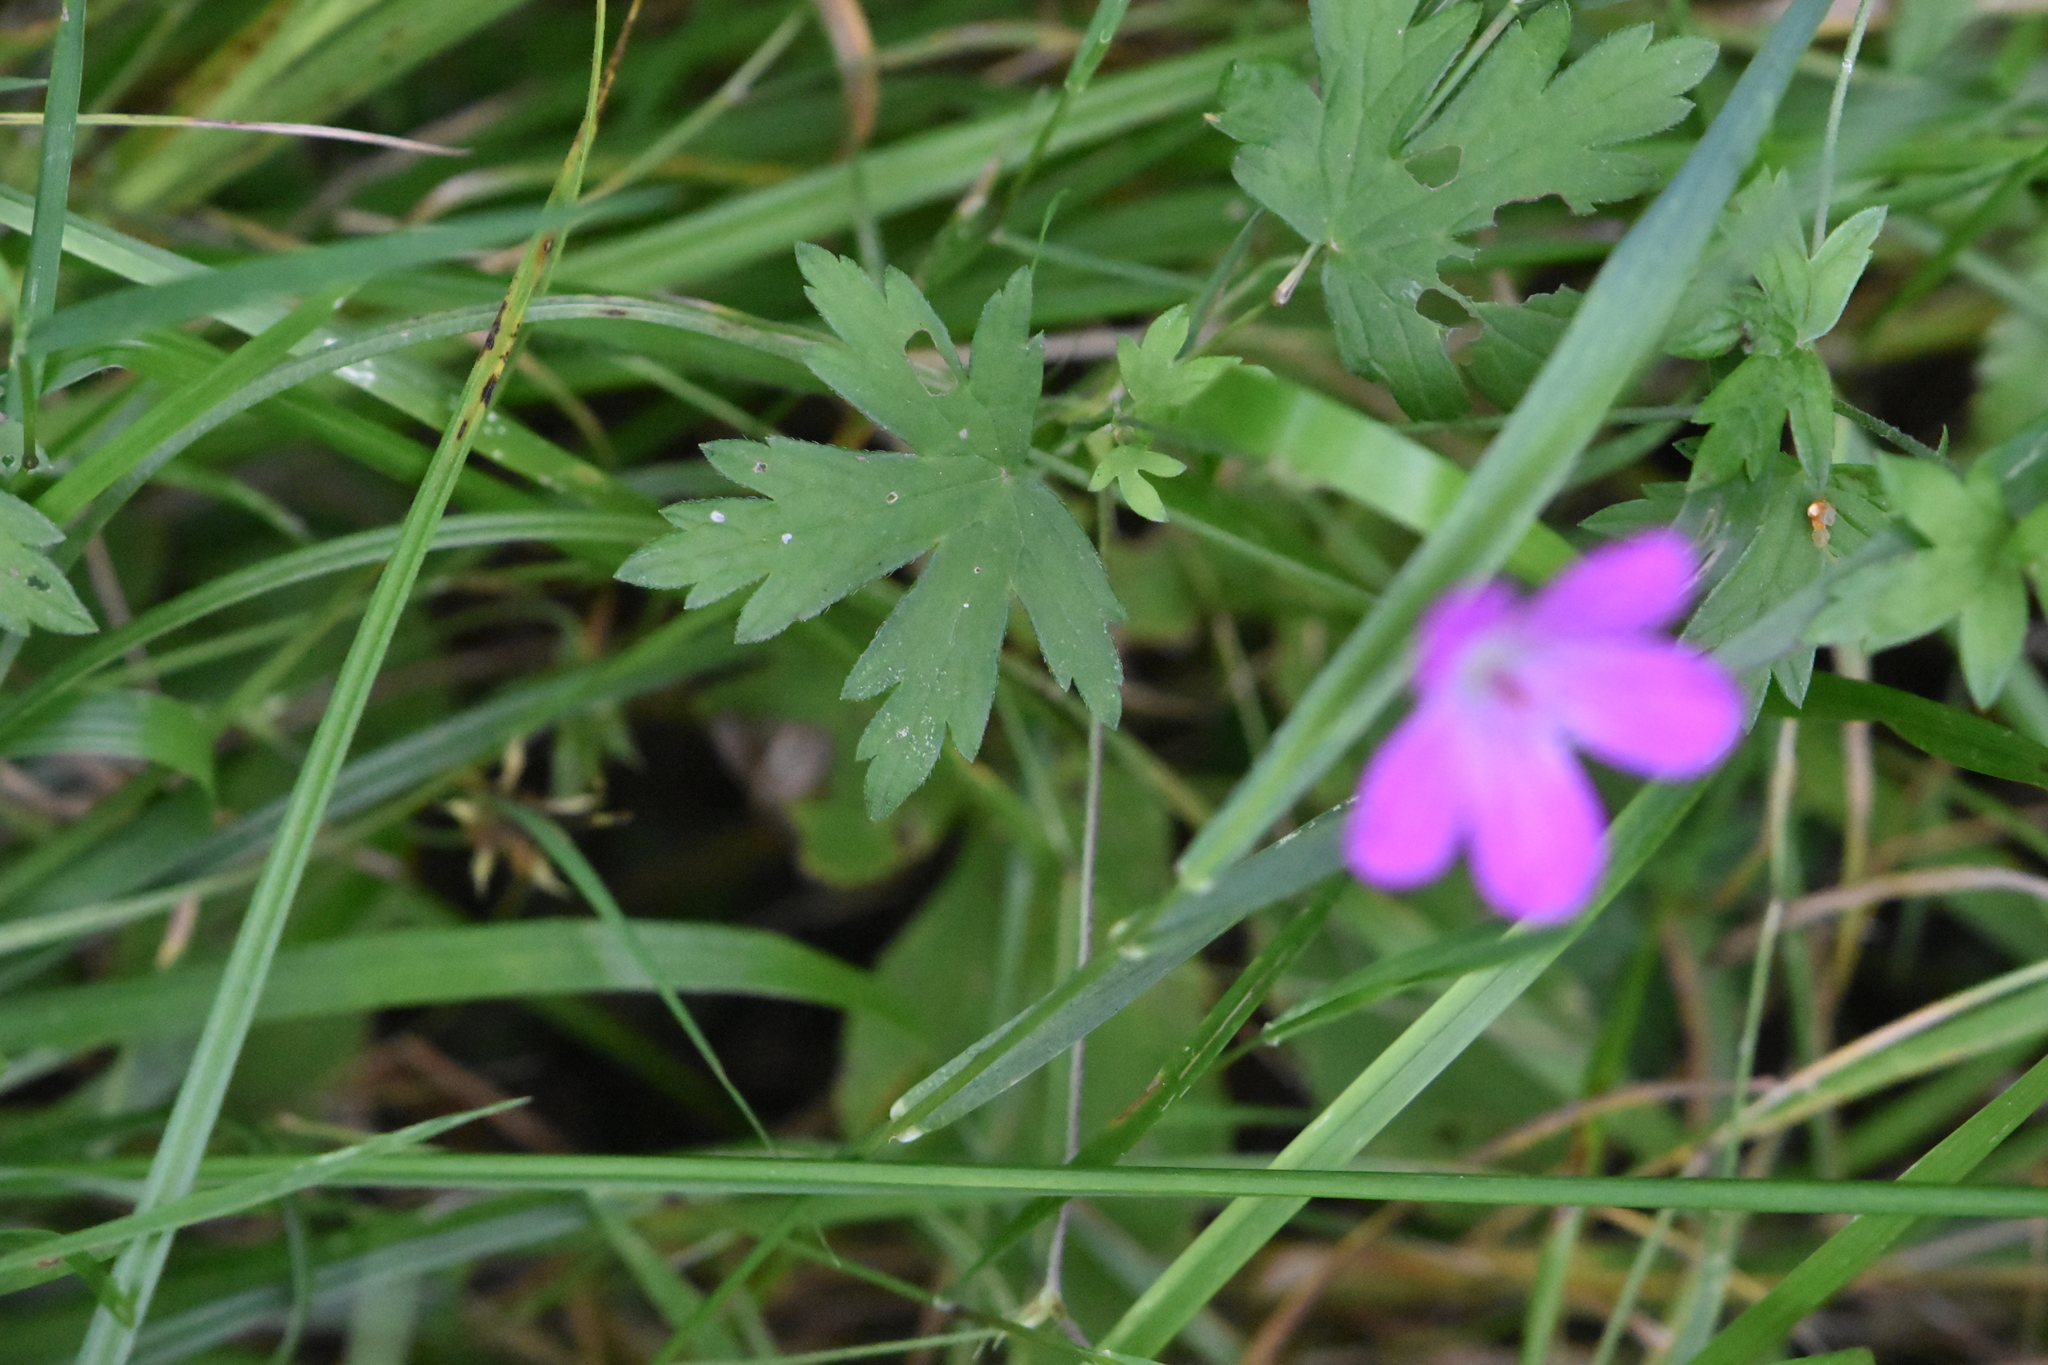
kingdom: Plantae
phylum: Tracheophyta
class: Magnoliopsida
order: Geraniales
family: Geraniaceae
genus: Geranium
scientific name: Geranium palustre
